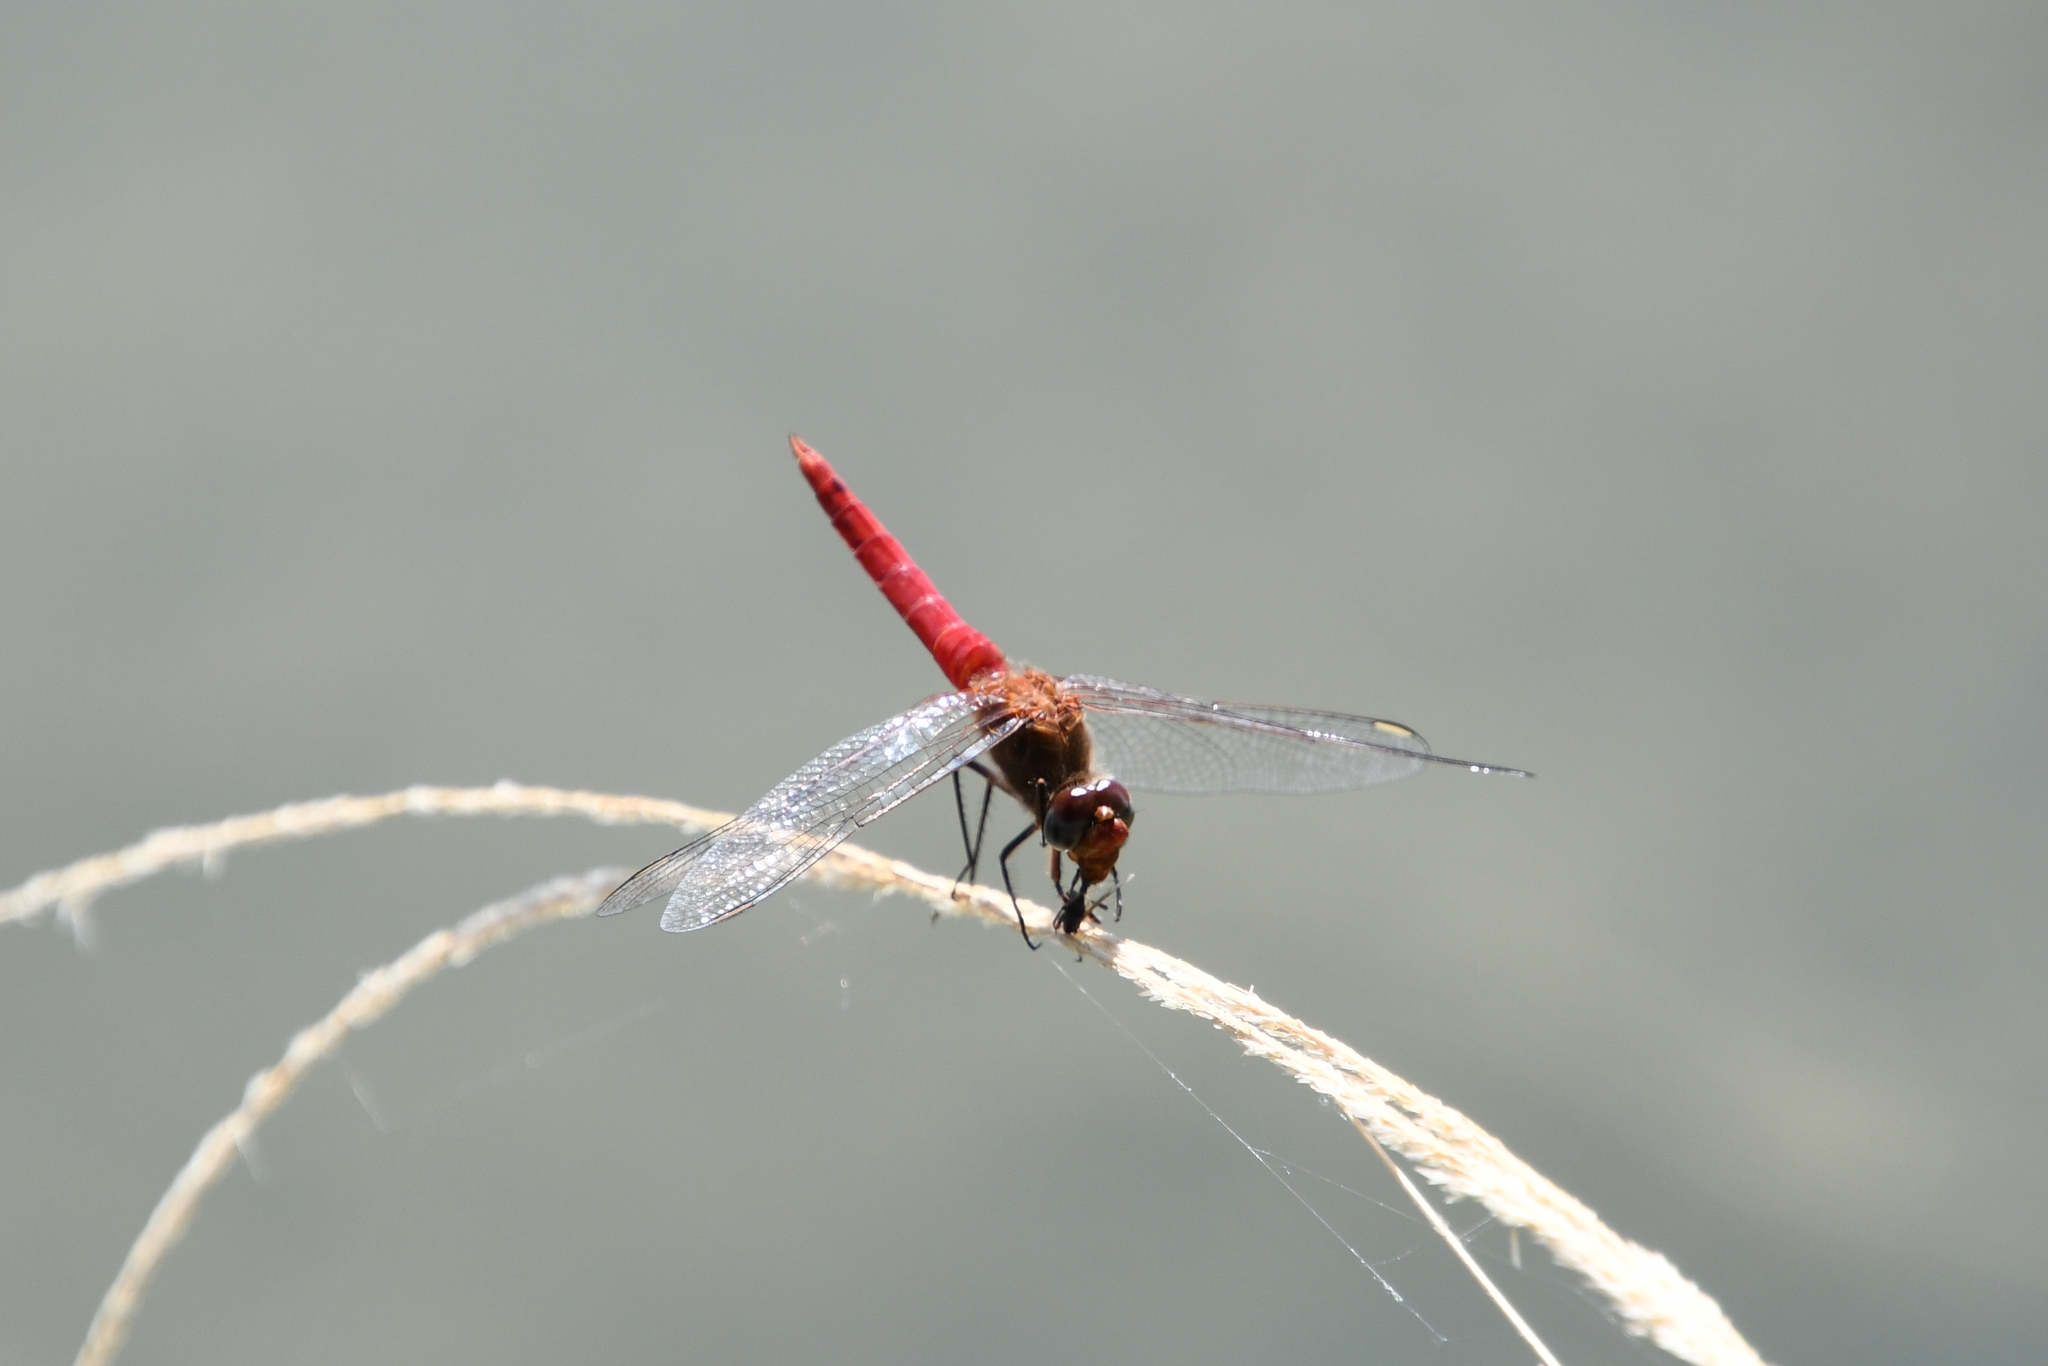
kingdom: Animalia
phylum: Arthropoda
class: Insecta
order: Odonata
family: Libellulidae
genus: Brachymesia
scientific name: Brachymesia furcata
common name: Red-taled pennant
